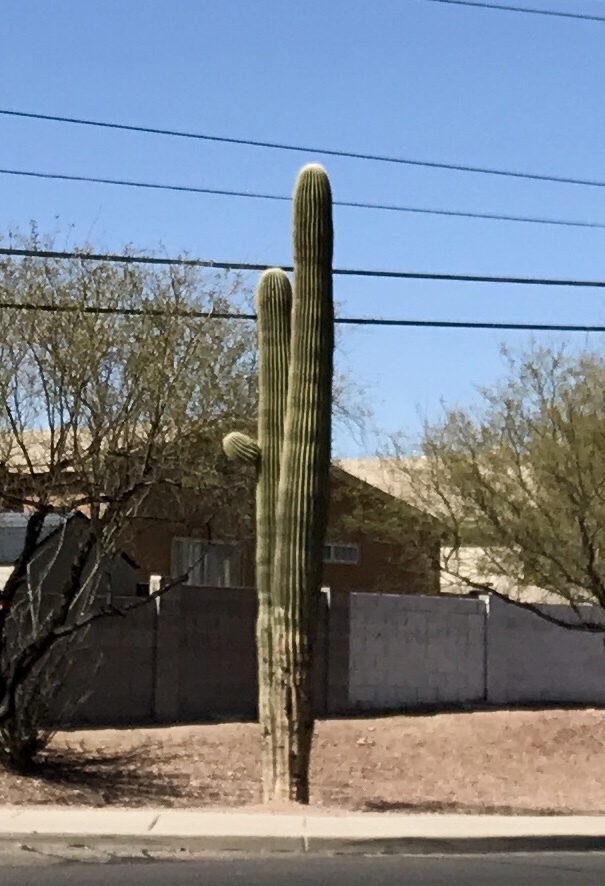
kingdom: Plantae
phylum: Tracheophyta
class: Magnoliopsida
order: Caryophyllales
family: Cactaceae
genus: Carnegiea
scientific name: Carnegiea gigantea
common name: Saguaro
